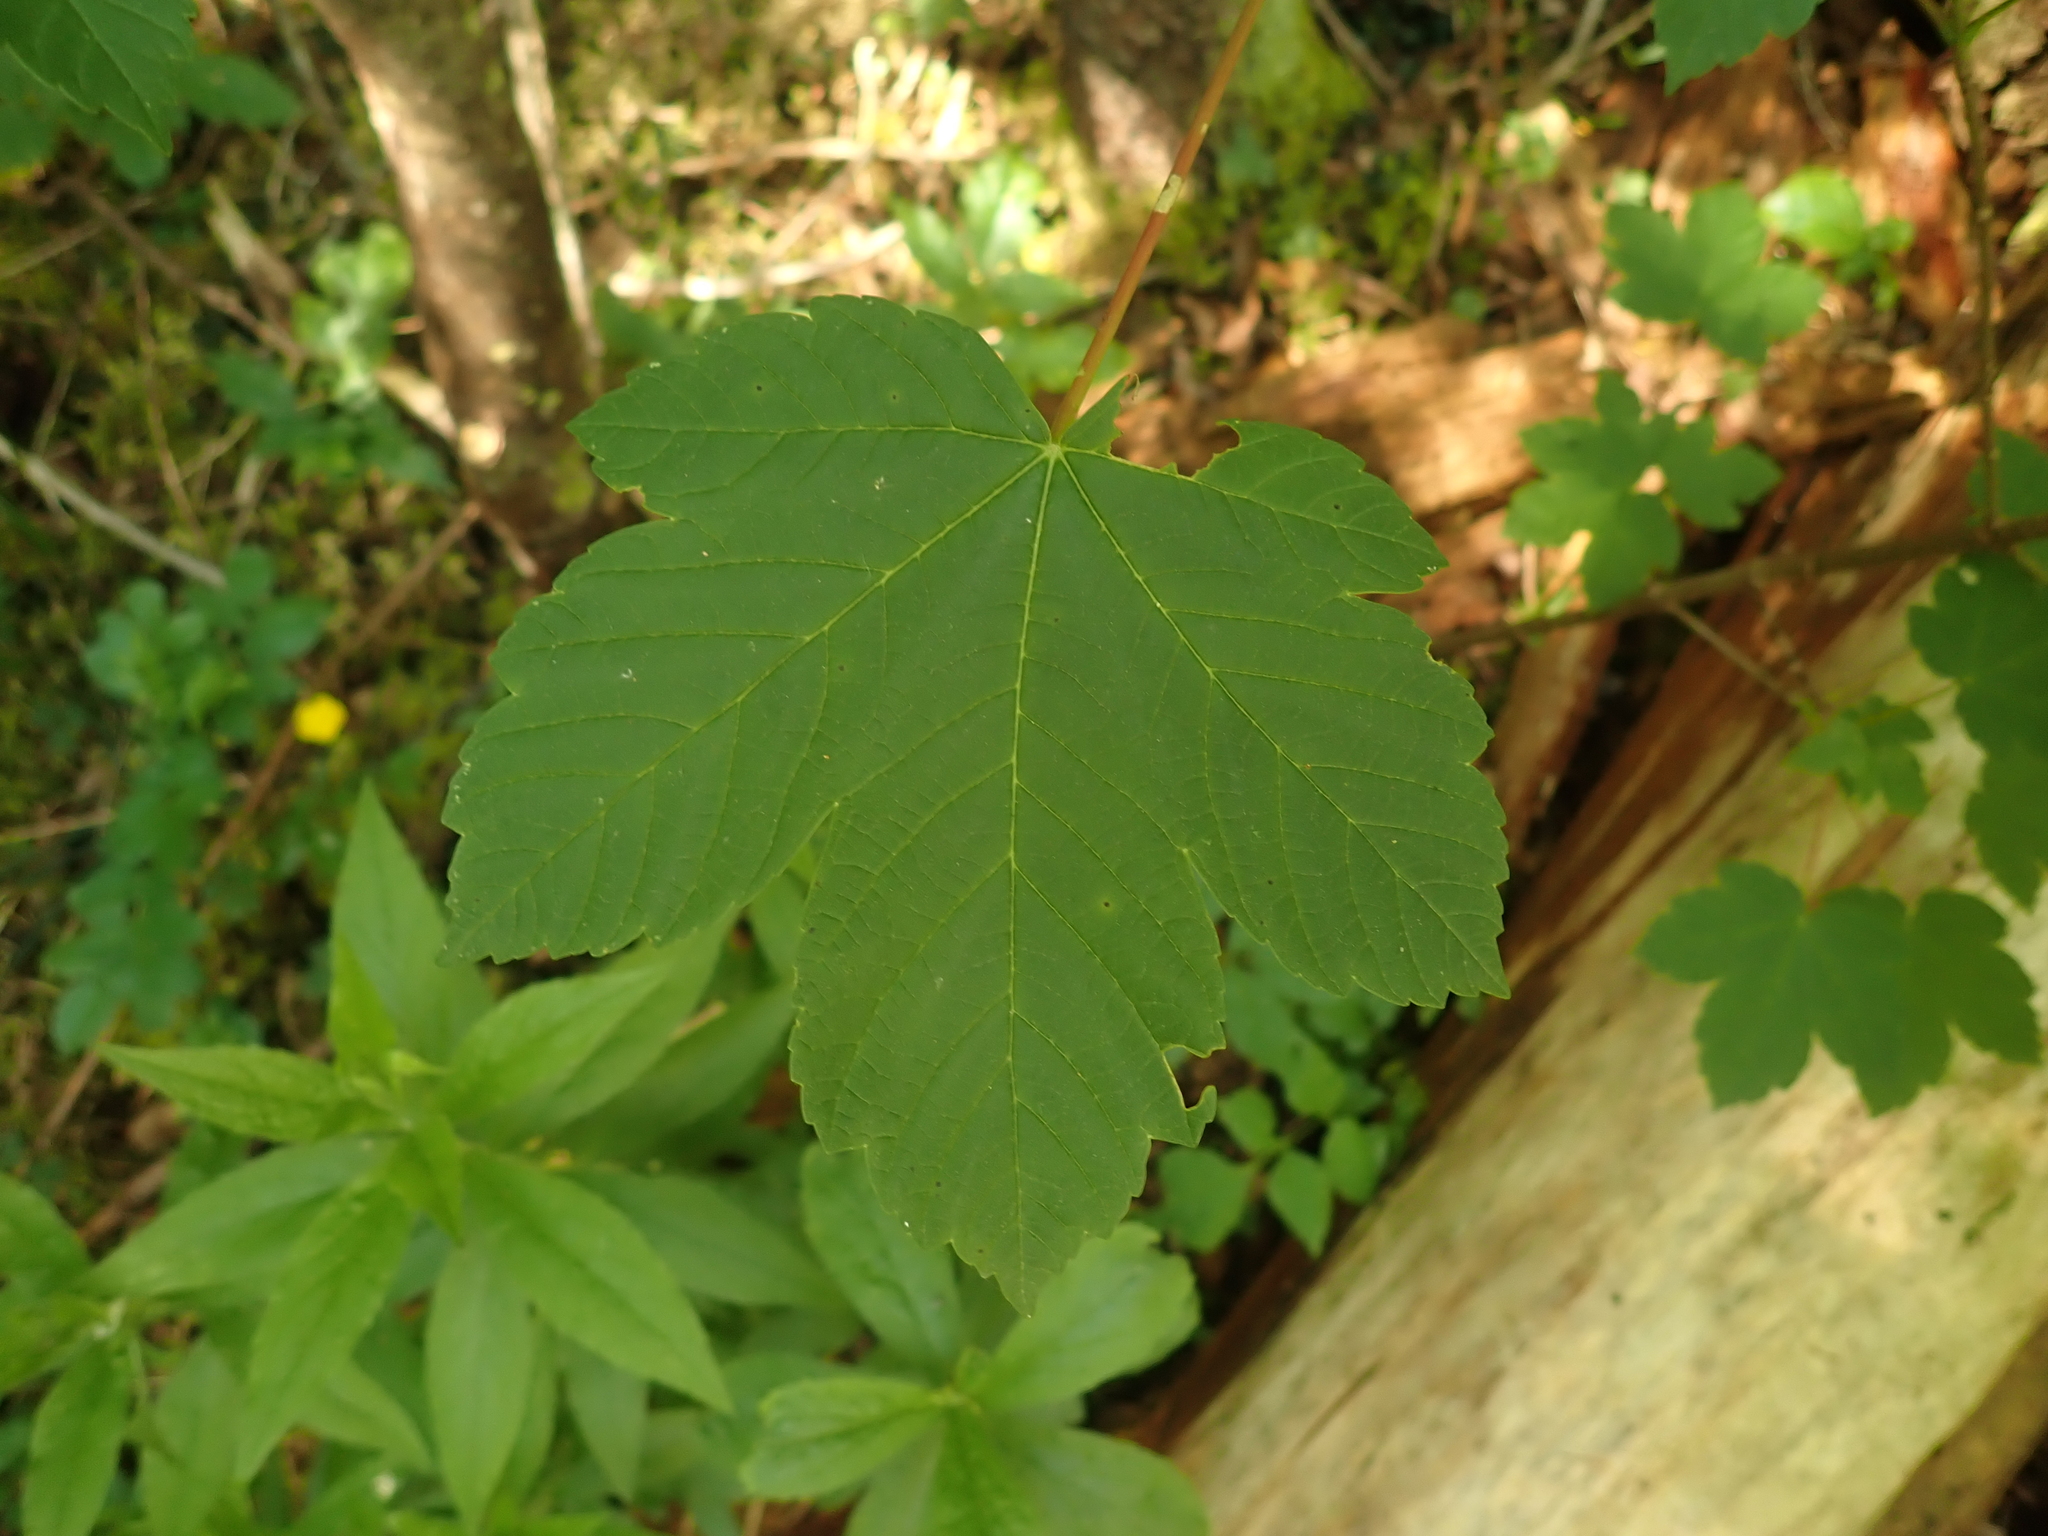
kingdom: Plantae
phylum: Tracheophyta
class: Magnoliopsida
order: Sapindales
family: Sapindaceae
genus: Acer
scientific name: Acer pseudoplatanus
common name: Sycamore
